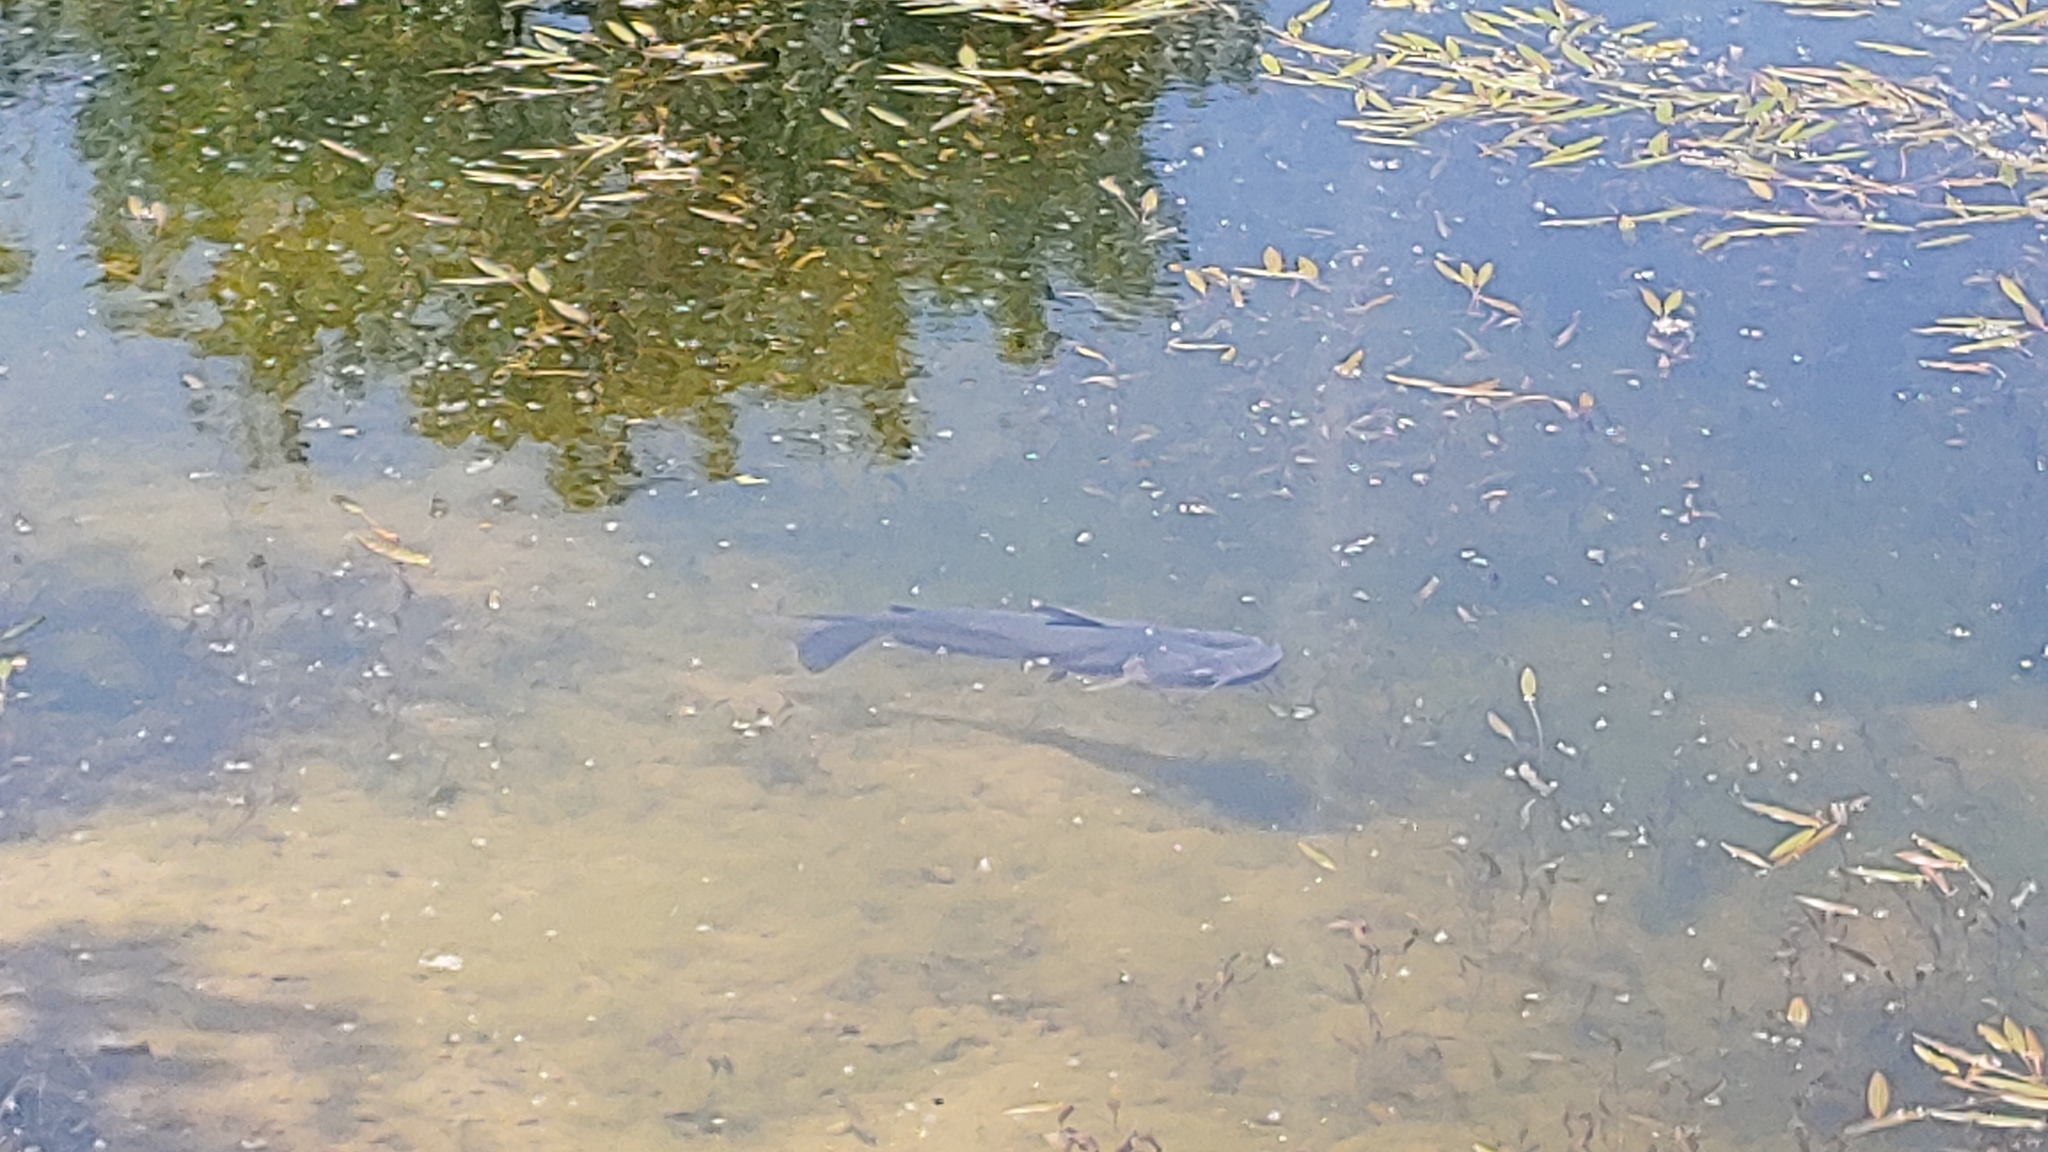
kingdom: Animalia
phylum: Chordata
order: Siluriformes
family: Ictaluridae
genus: Ictalurus
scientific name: Ictalurus punctatus
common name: Channel catfish
